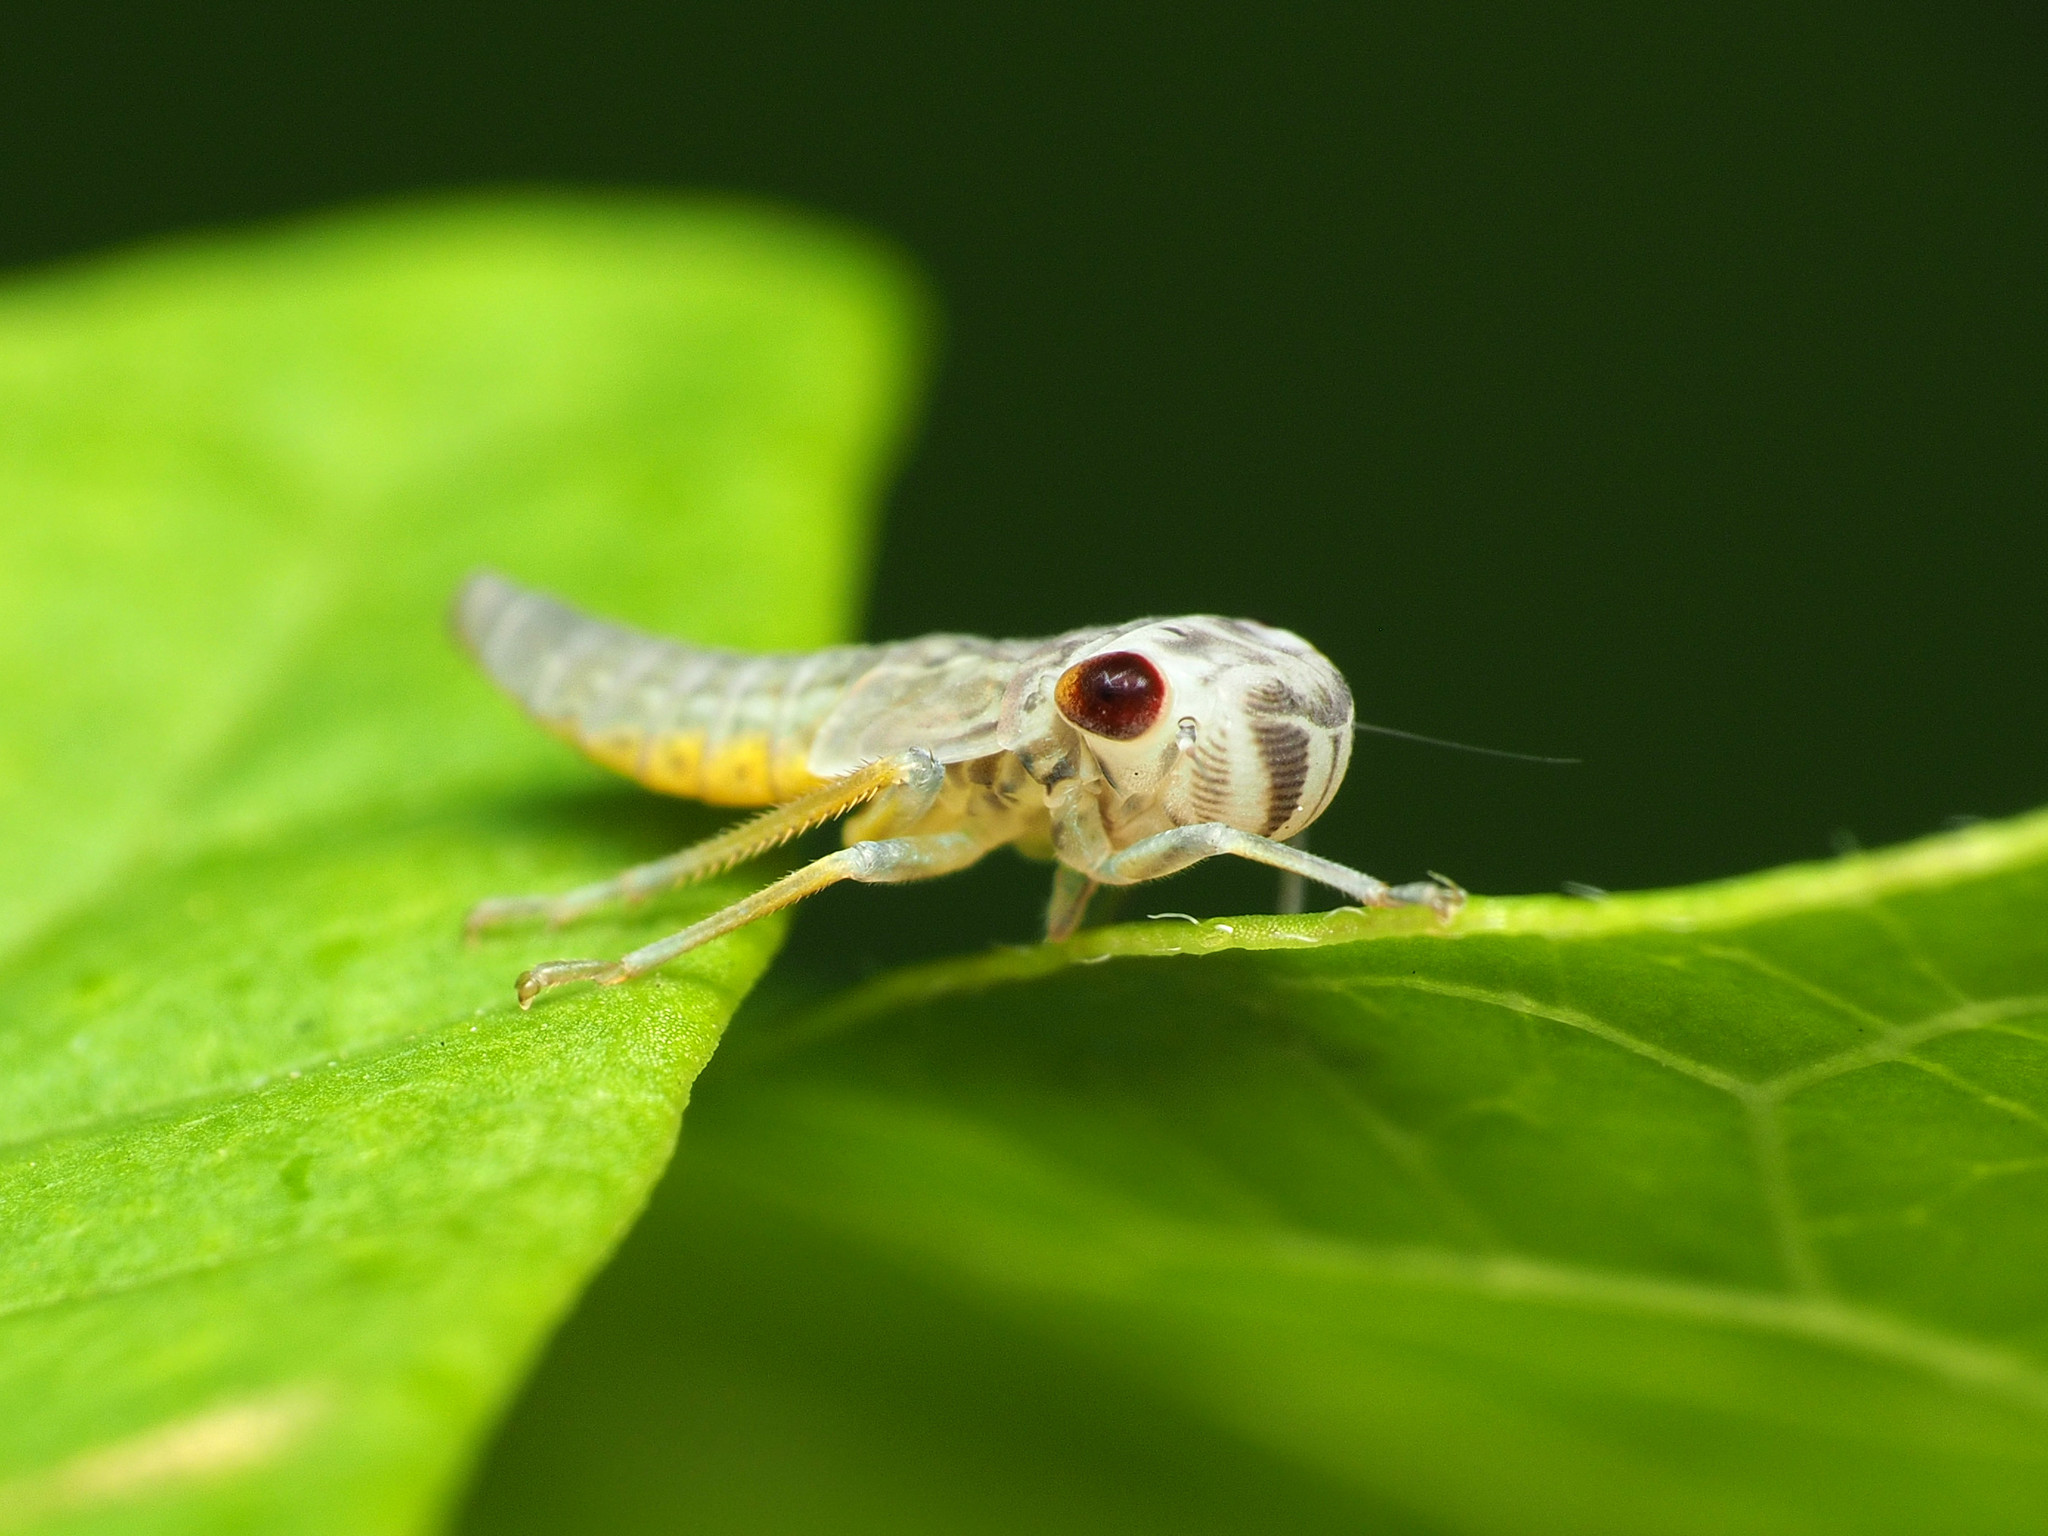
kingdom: Animalia
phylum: Arthropoda
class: Insecta
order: Hemiptera
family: Cicadellidae
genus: Oncometopia
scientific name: Oncometopia orbona
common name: Broad-headed sharpshooter
